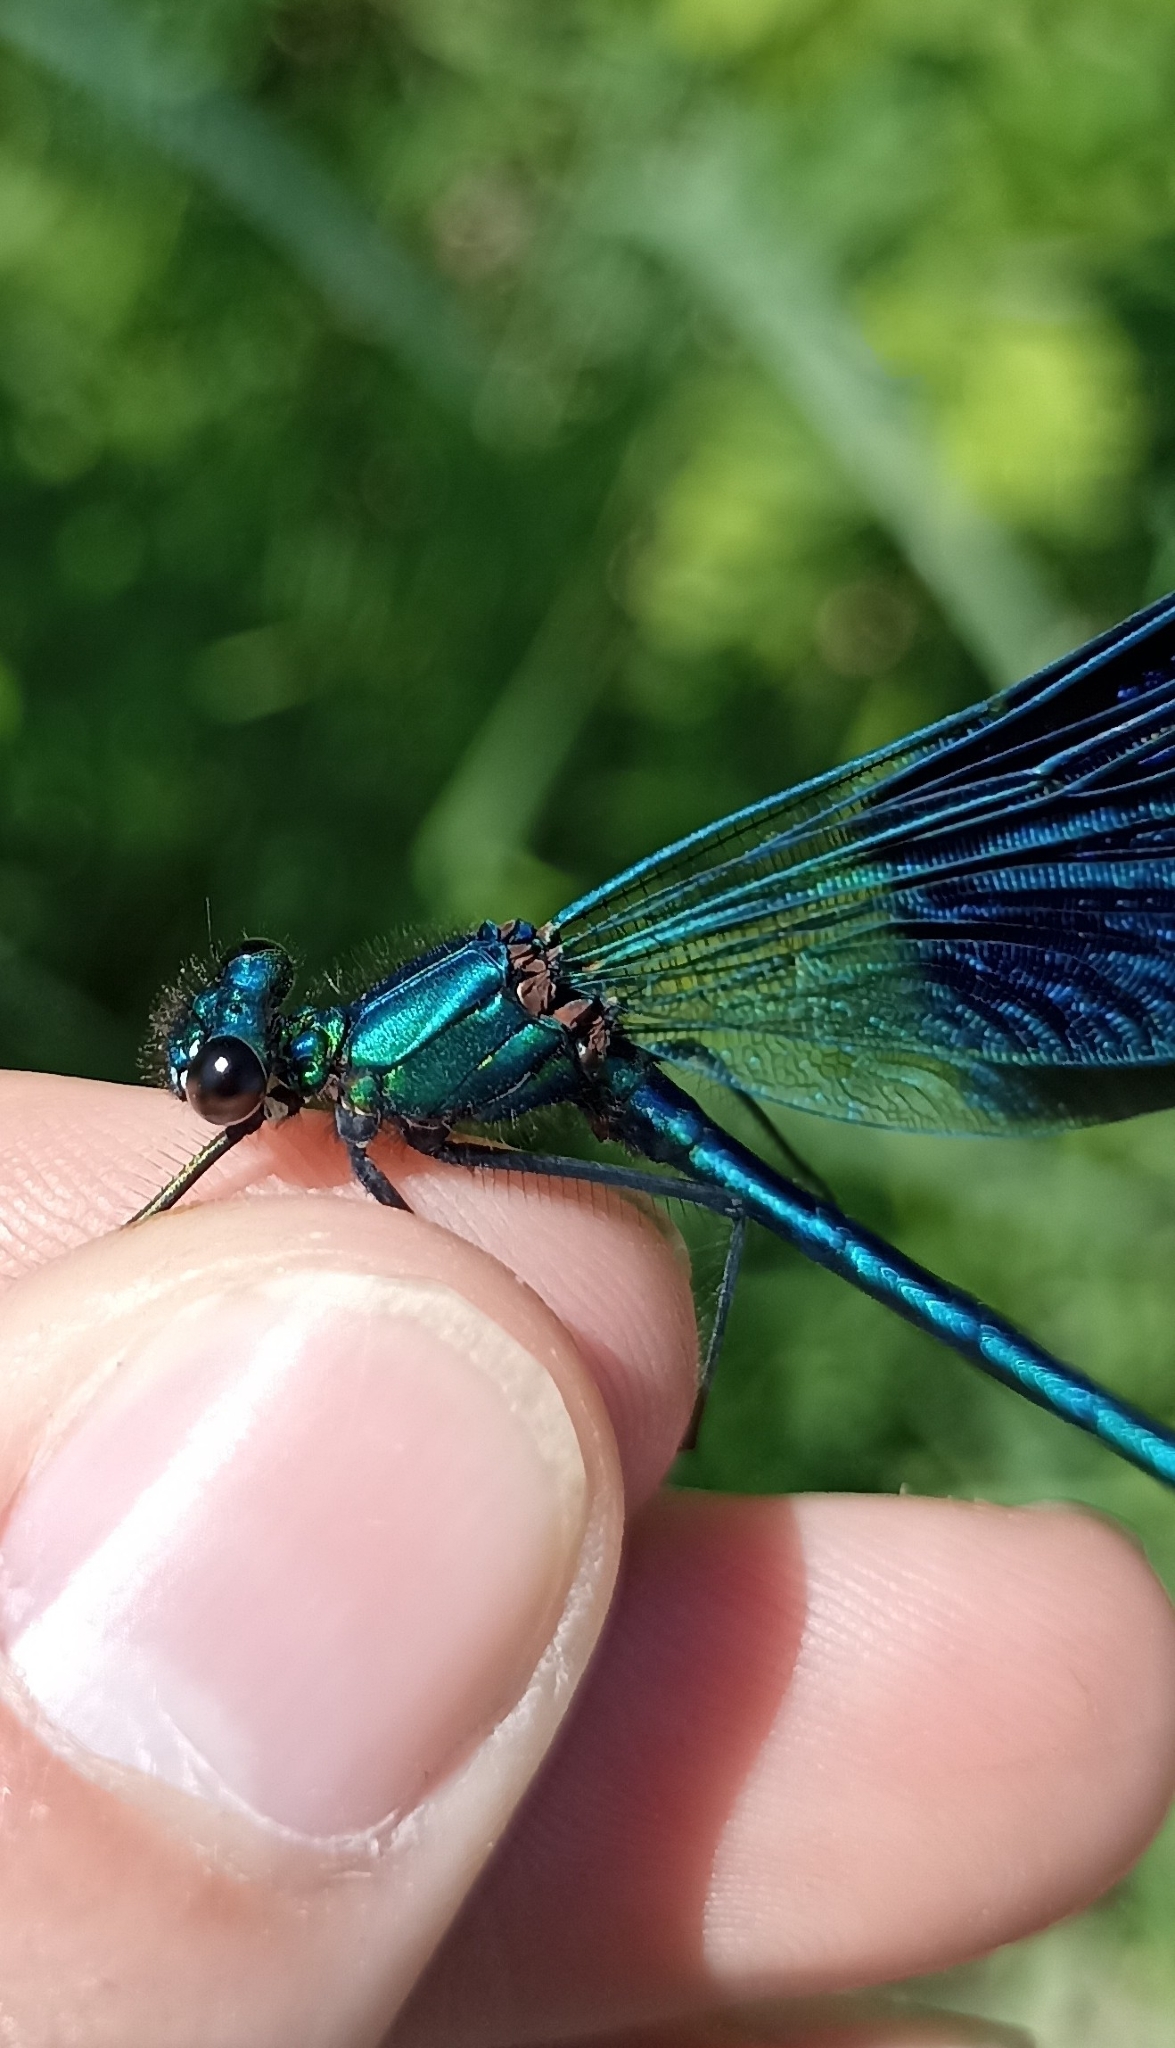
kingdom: Animalia
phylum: Arthropoda
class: Insecta
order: Odonata
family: Calopterygidae
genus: Calopteryx
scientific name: Calopteryx splendens
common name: Banded demoiselle
